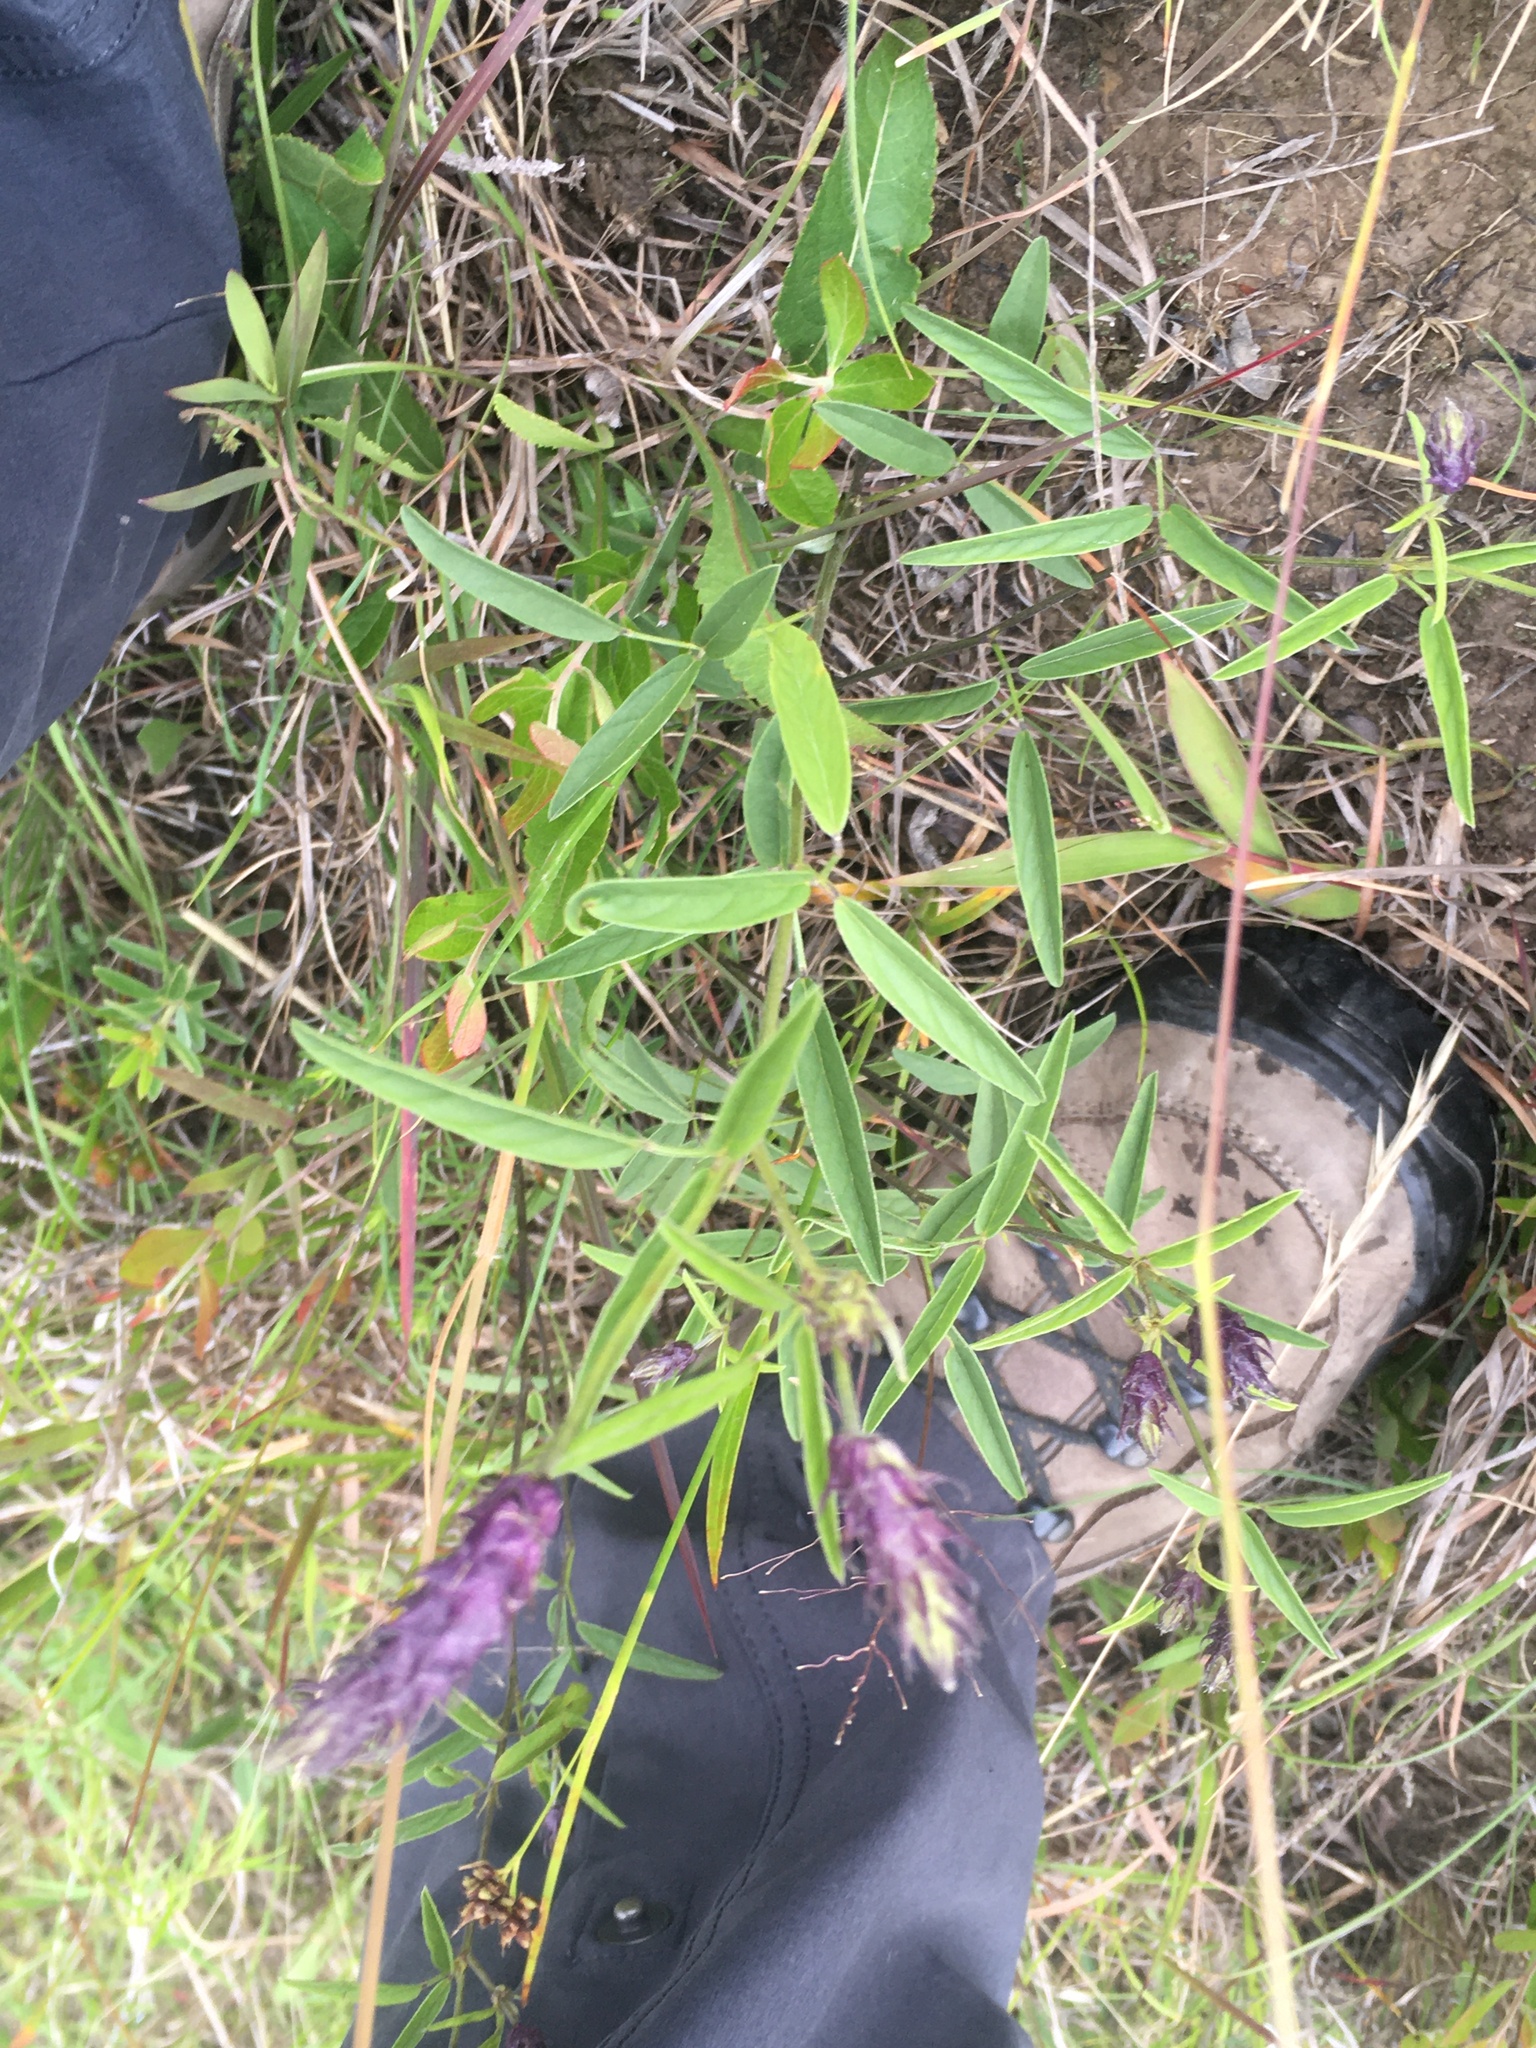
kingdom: Plantae
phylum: Tracheophyta
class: Magnoliopsida
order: Fabales
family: Fabaceae
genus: Orbexilum
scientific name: Orbexilum psoralioides
